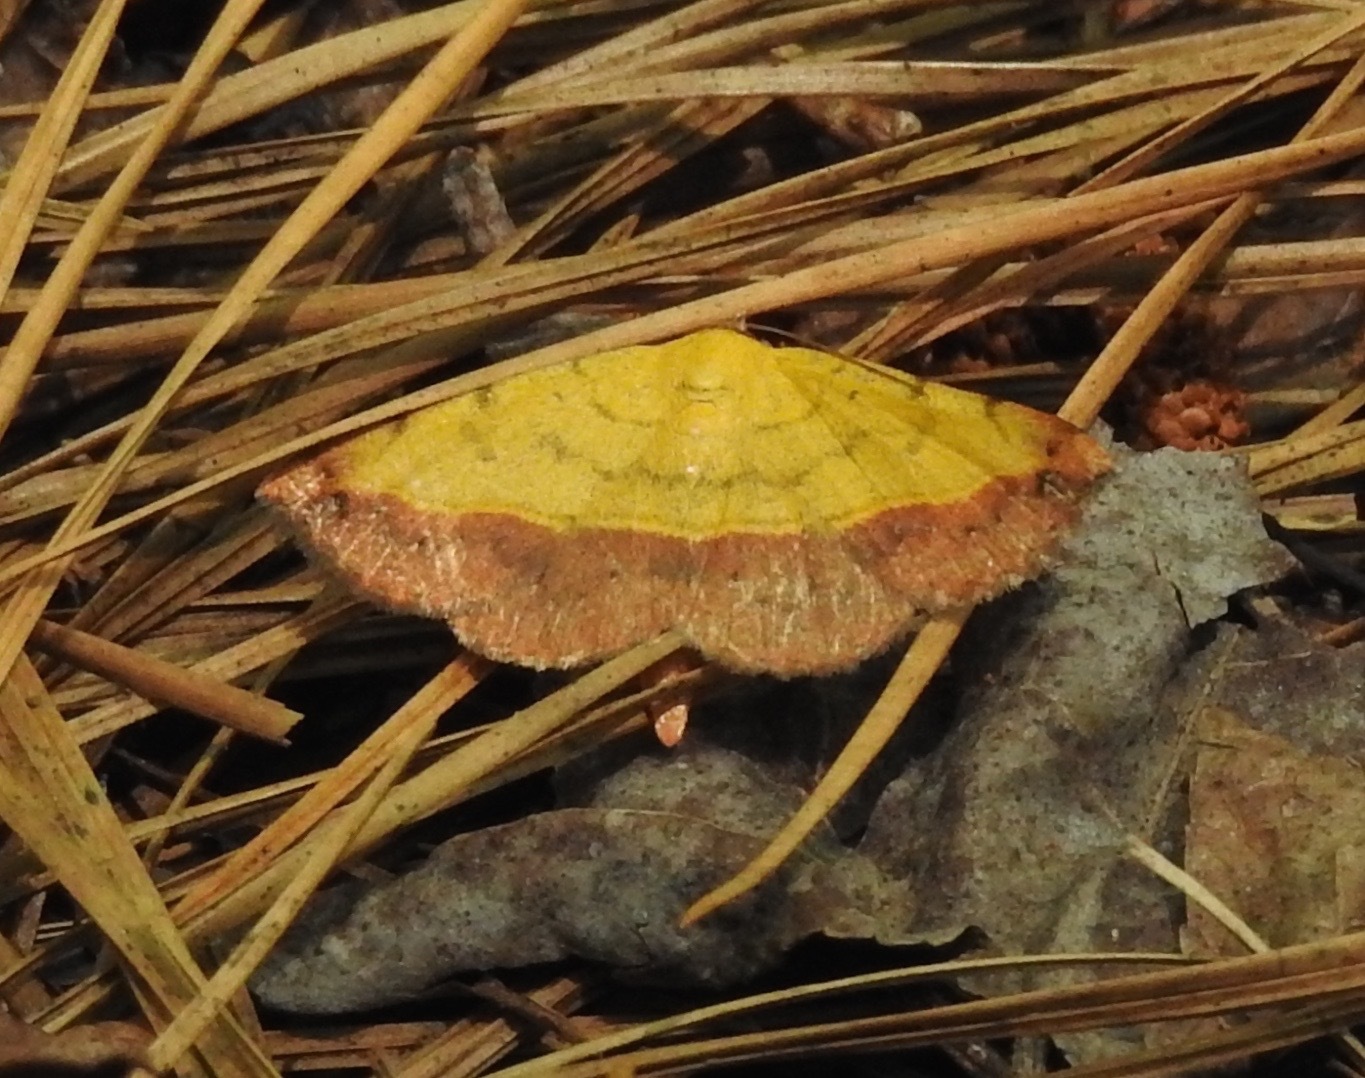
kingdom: Animalia
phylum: Arthropoda
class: Insecta
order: Lepidoptera
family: Erebidae
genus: Hemeroplanis
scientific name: Hemeroplanis scopulepes
